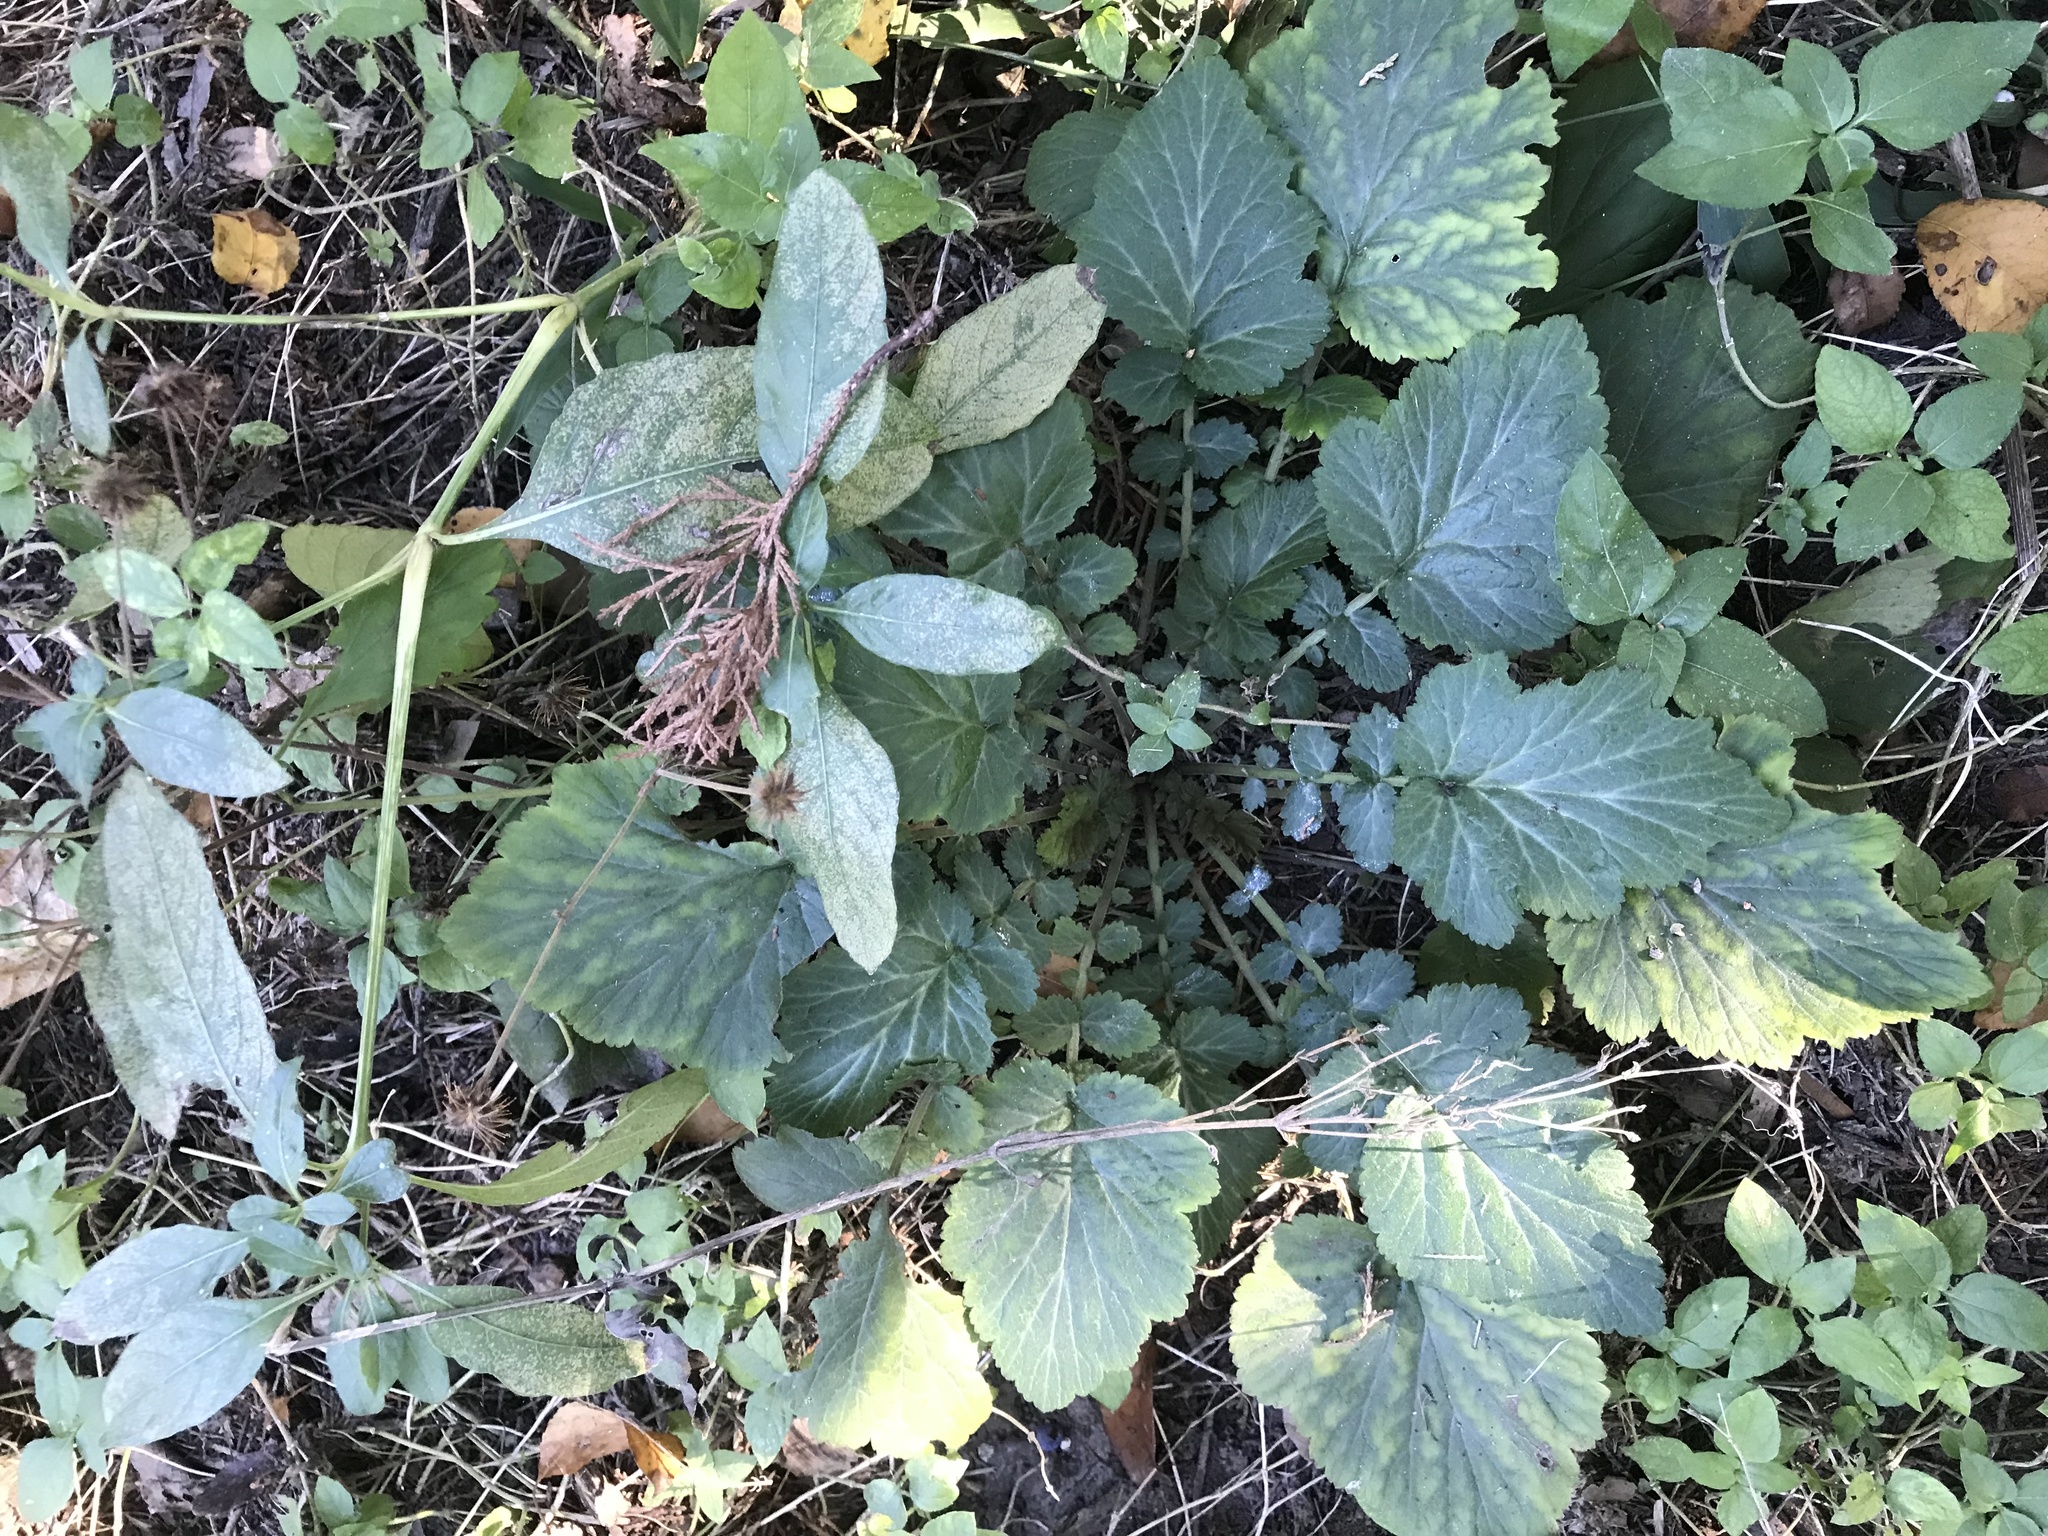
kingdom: Plantae
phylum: Tracheophyta
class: Magnoliopsida
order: Rosales
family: Rosaceae
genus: Geum
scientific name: Geum canadense
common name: White avens
